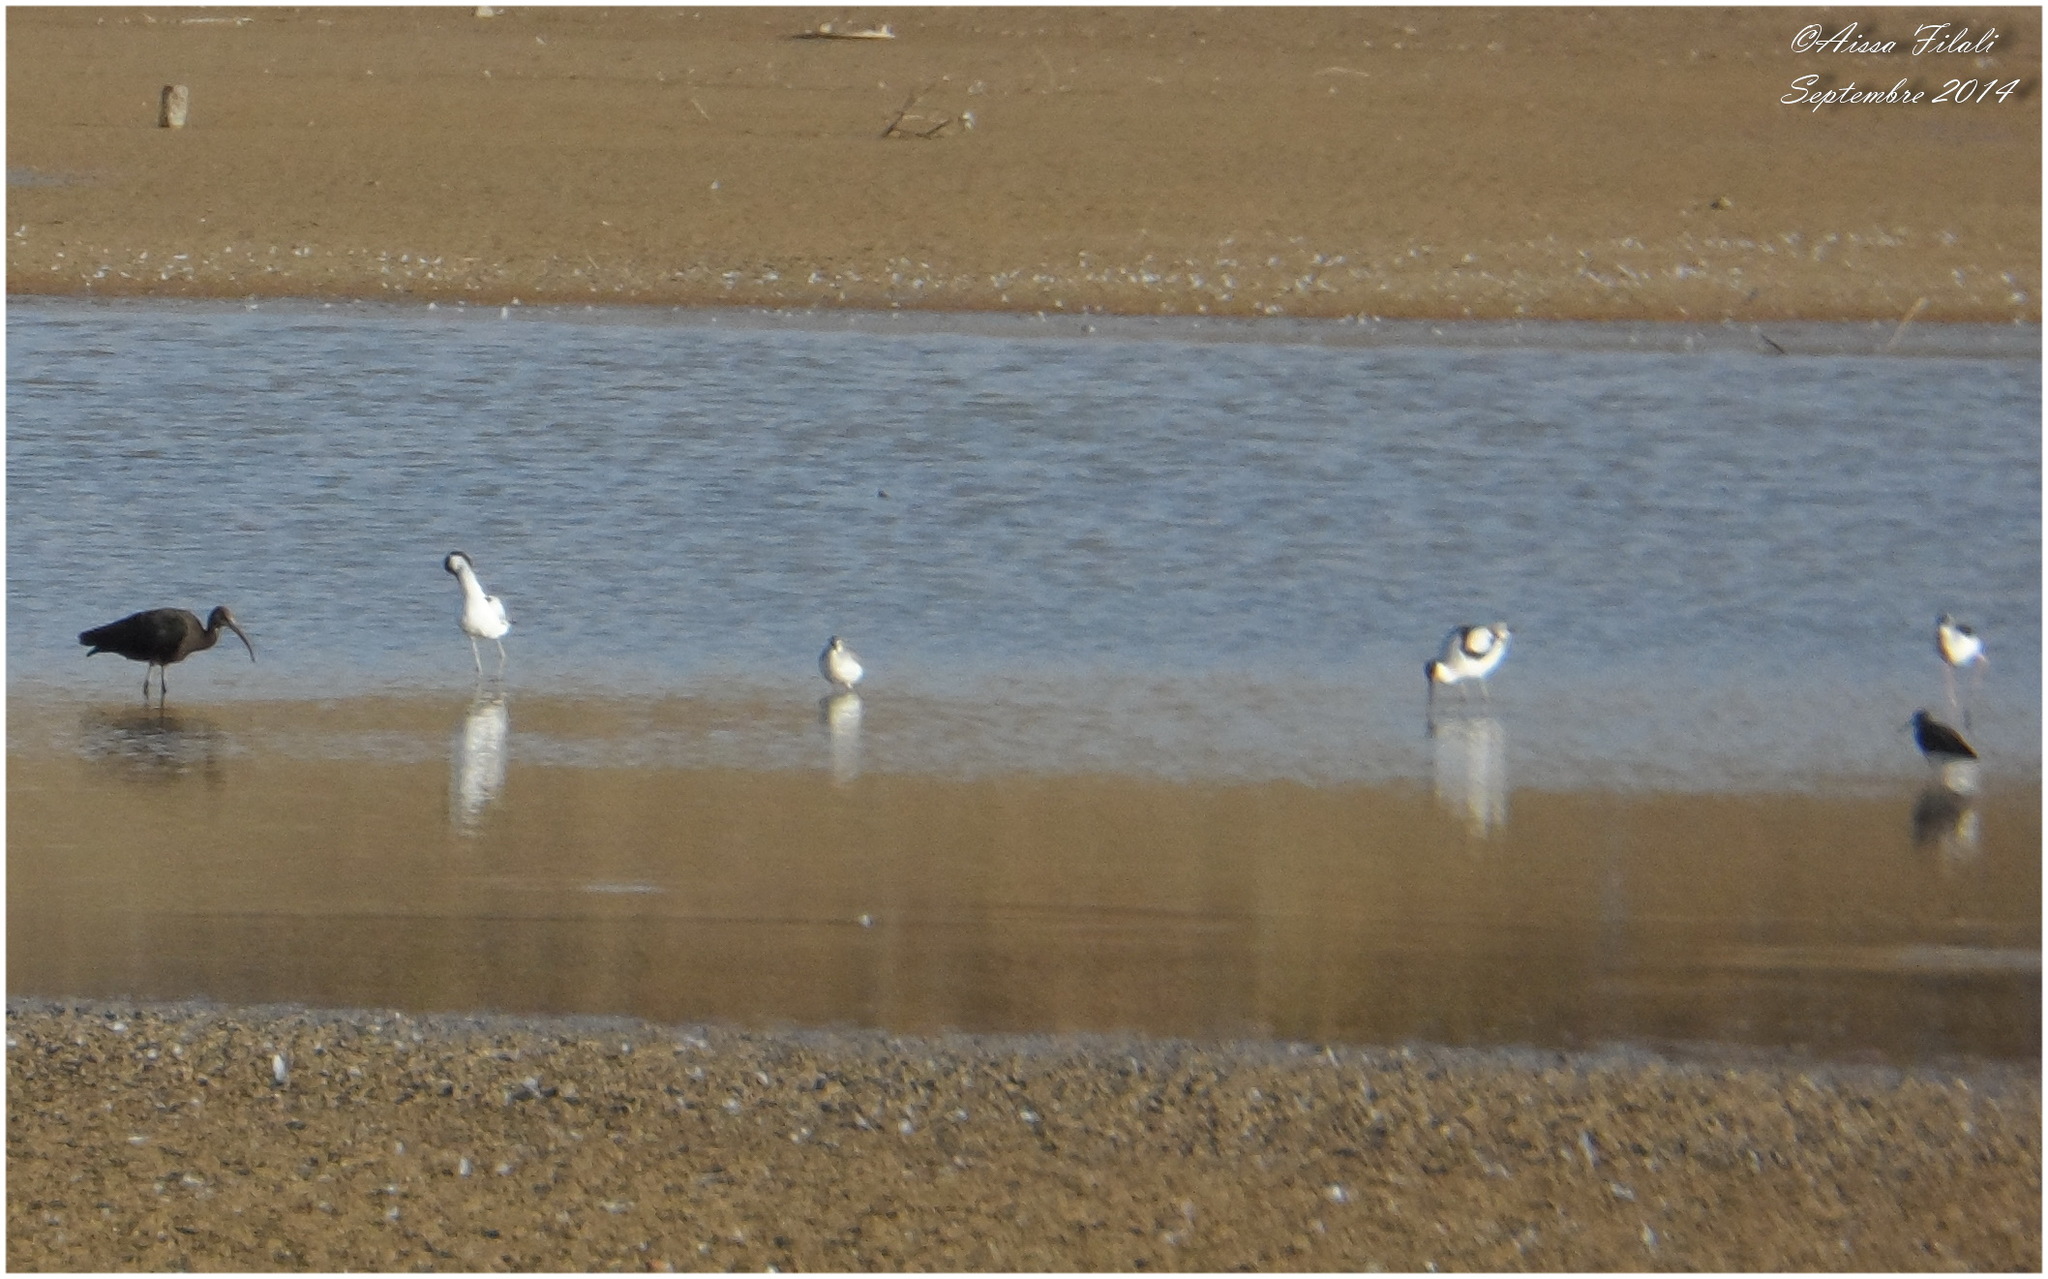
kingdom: Animalia
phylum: Chordata
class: Aves
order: Pelecaniformes
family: Threskiornithidae
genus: Plegadis
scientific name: Plegadis falcinellus
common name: Glossy ibis
